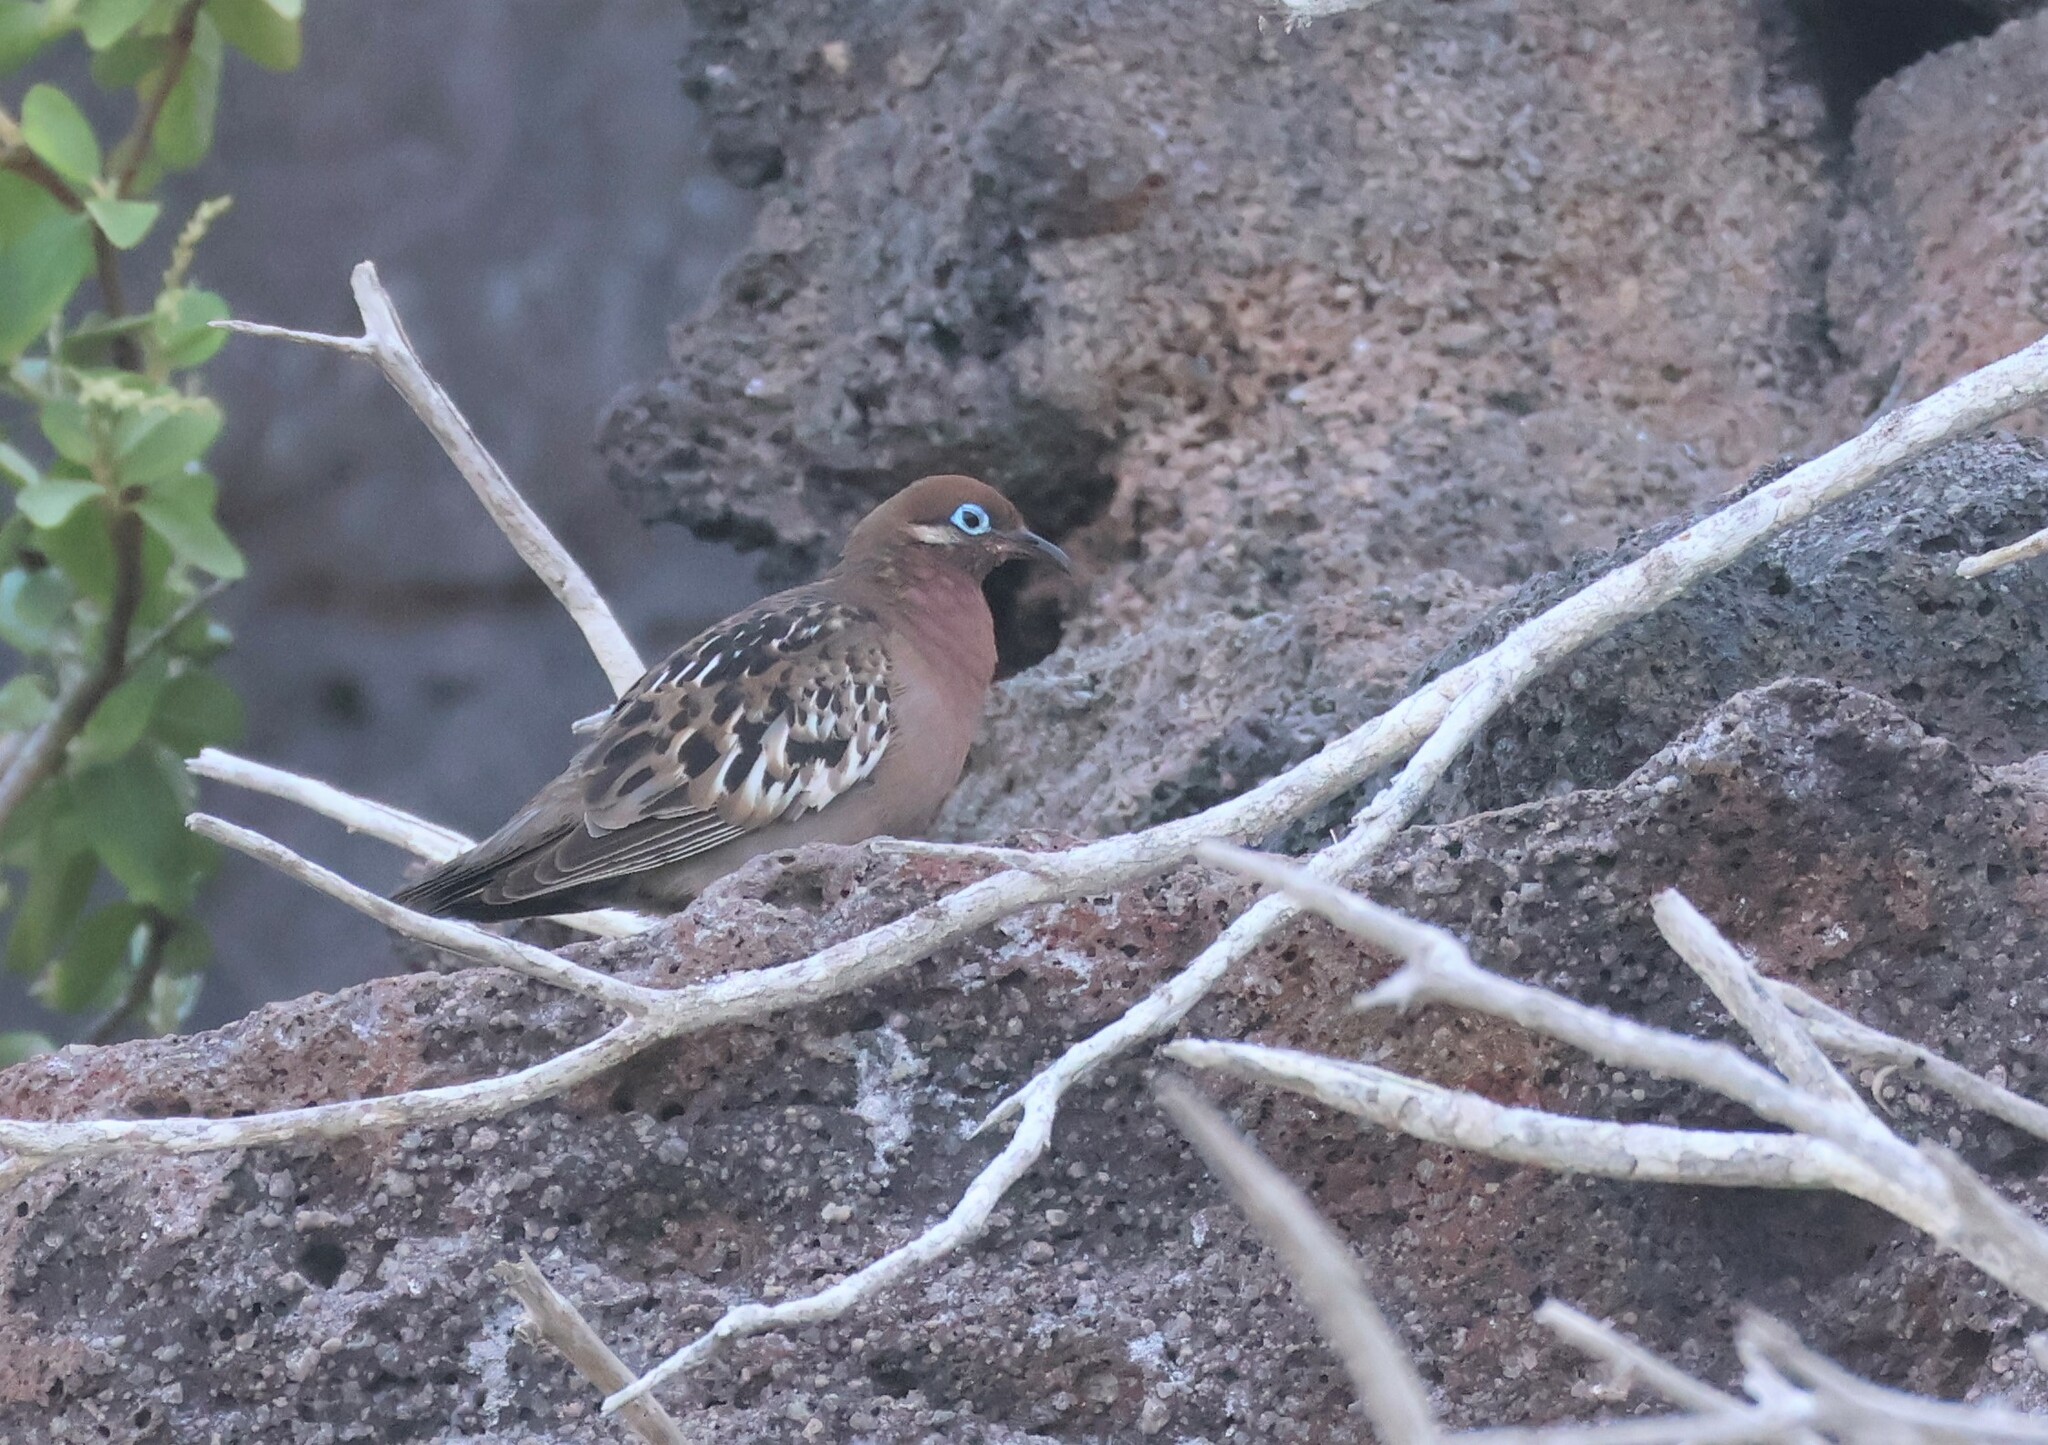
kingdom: Animalia
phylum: Chordata
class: Aves
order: Columbiformes
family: Columbidae
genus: Zenaida
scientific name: Zenaida galapagoensis
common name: Galapagos dove
